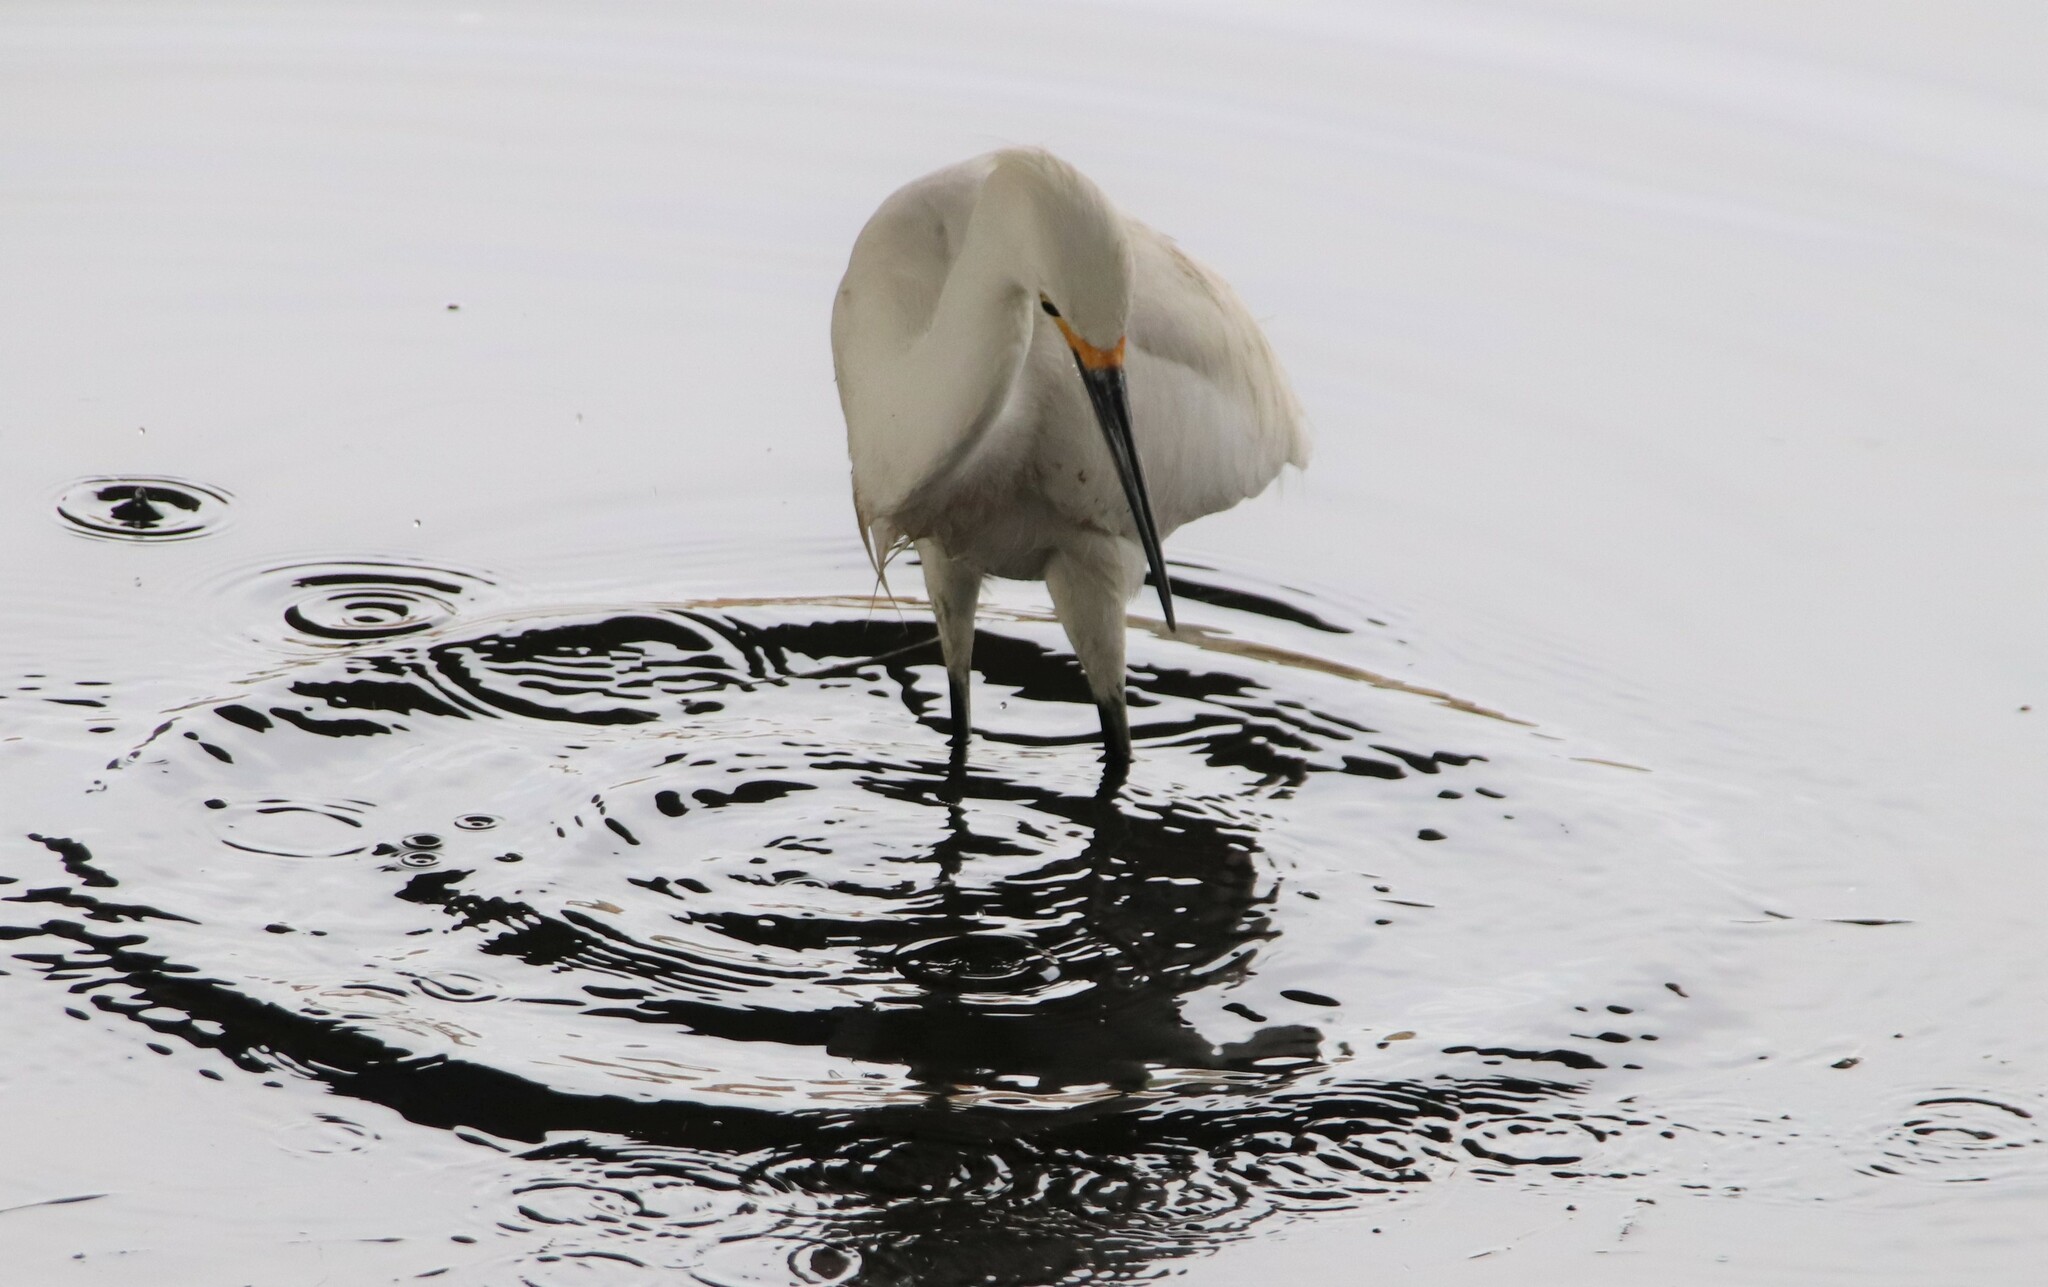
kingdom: Animalia
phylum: Chordata
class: Aves
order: Pelecaniformes
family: Ardeidae
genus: Egretta
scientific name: Egretta thula
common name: Snowy egret
